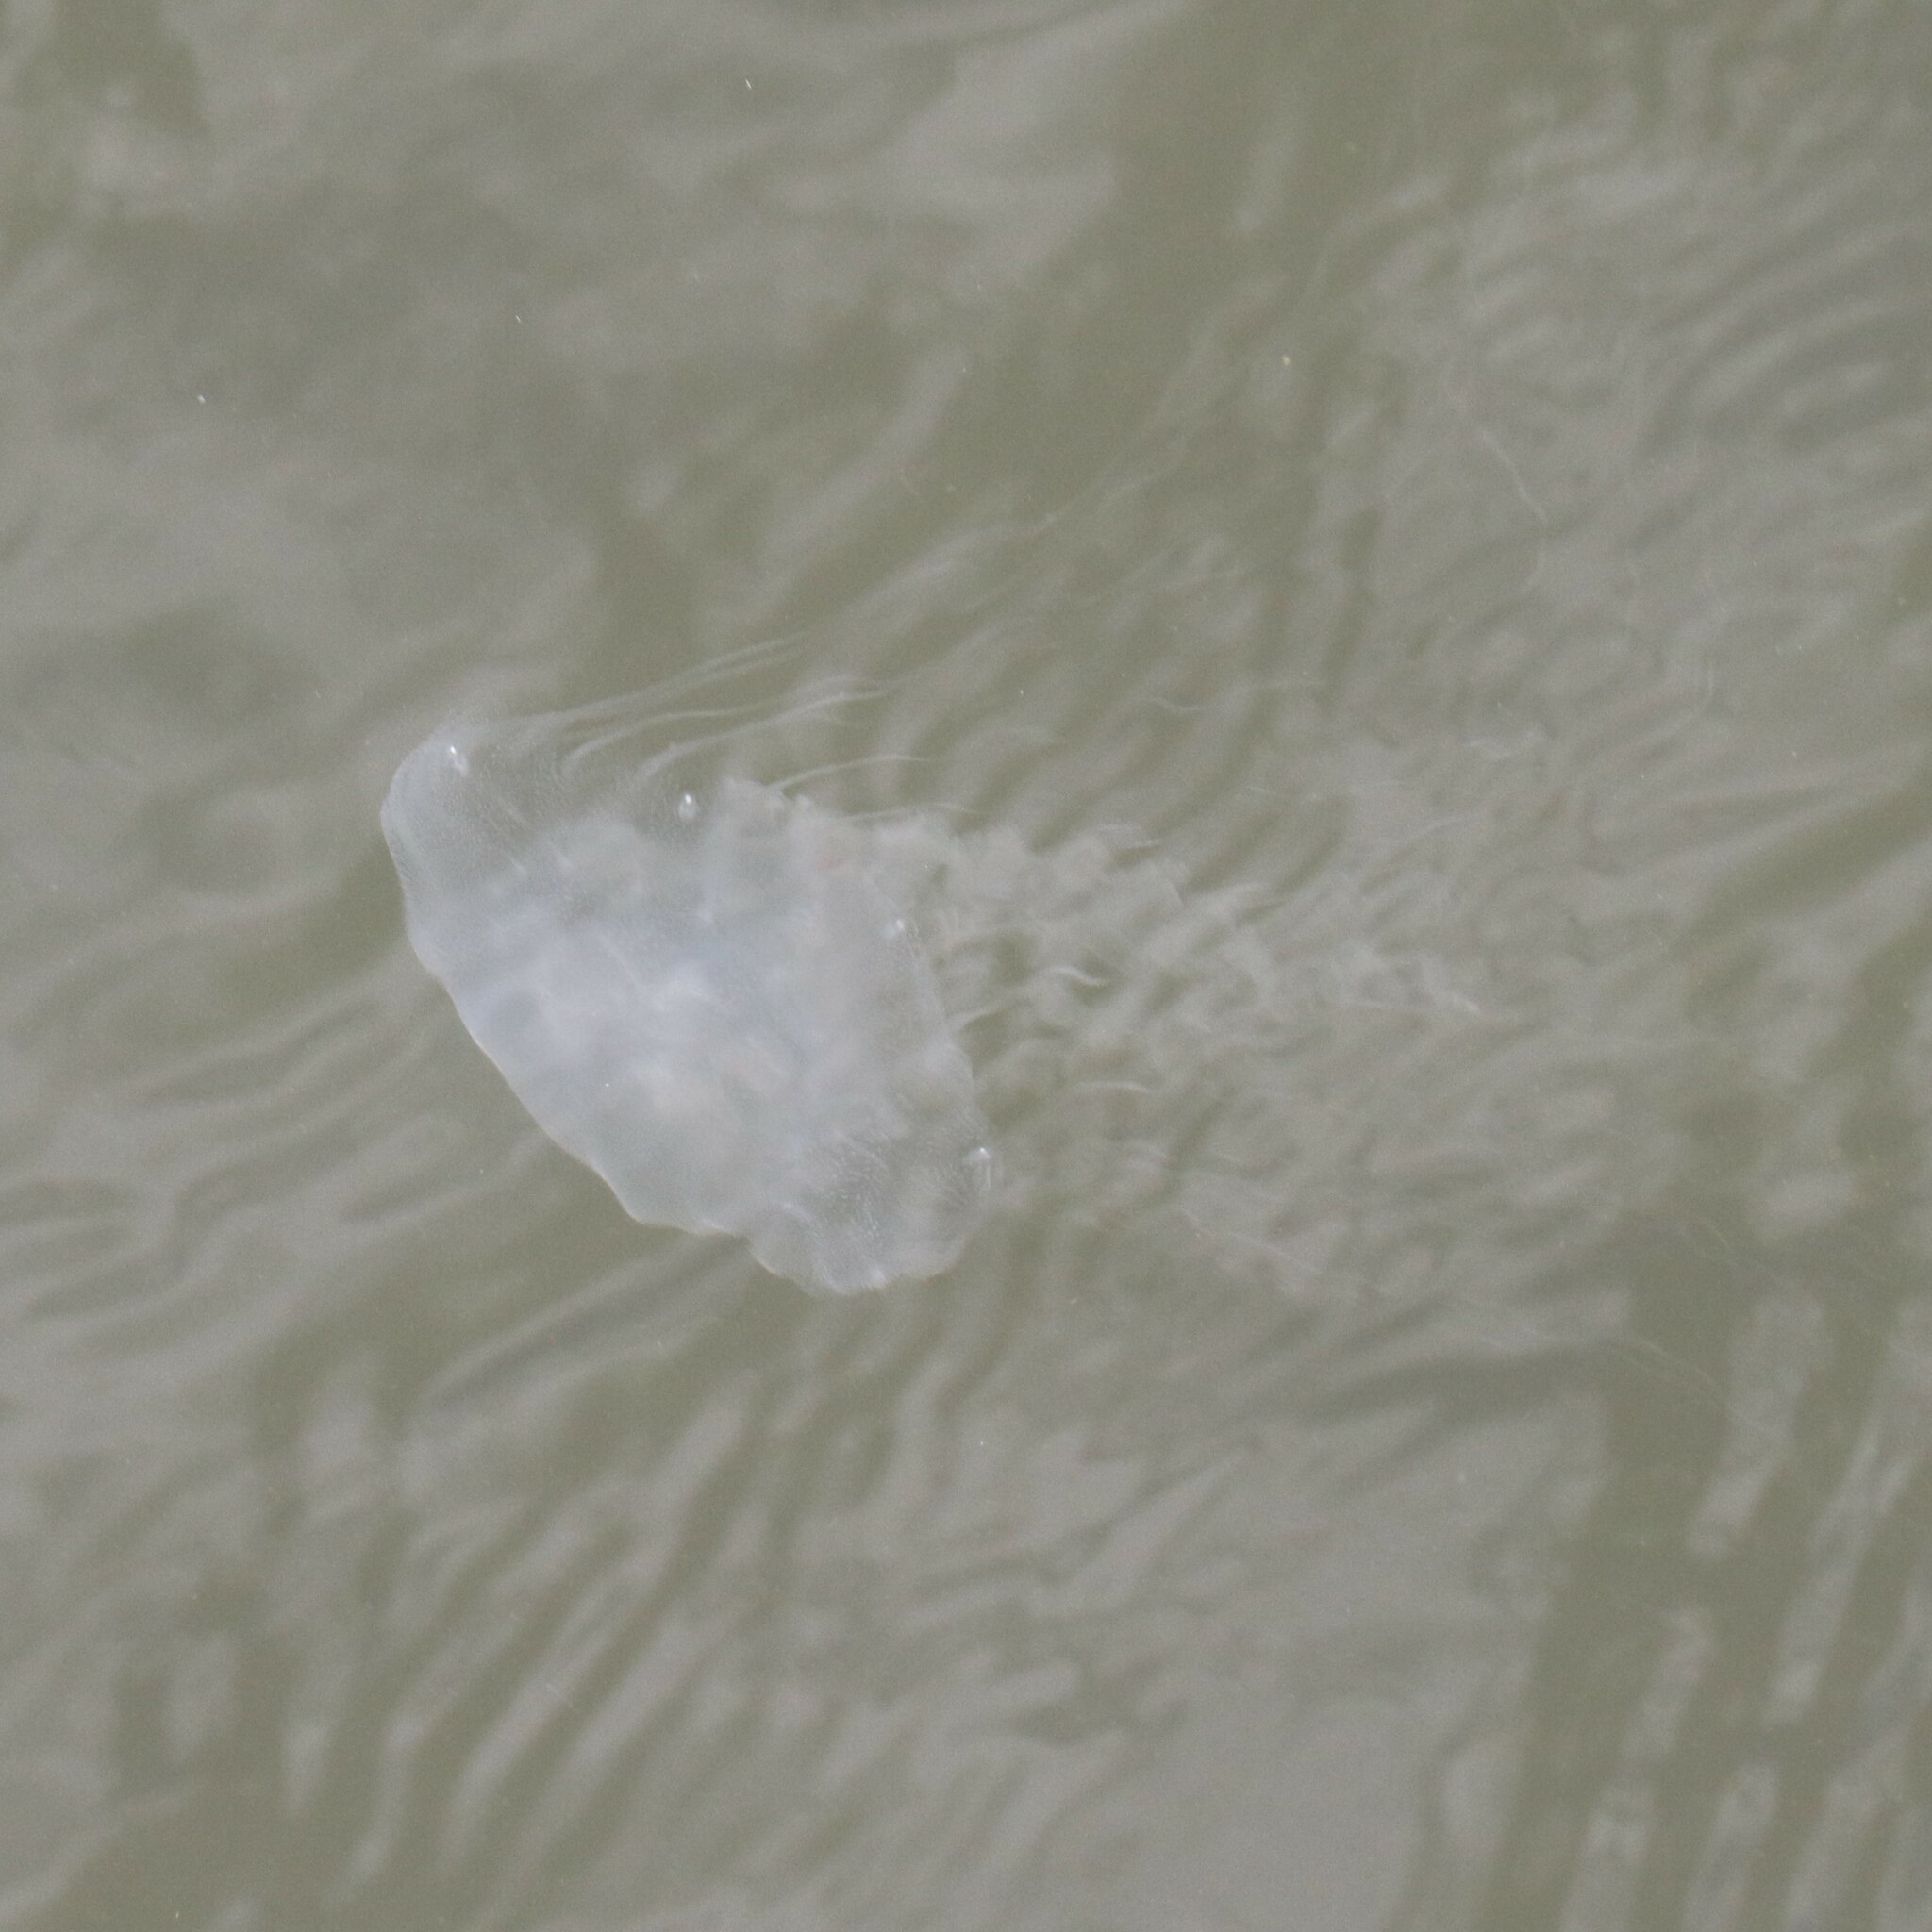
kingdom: Animalia
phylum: Cnidaria
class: Scyphozoa
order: Semaeostomeae
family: Pelagiidae
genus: Chrysaora
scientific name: Chrysaora chesapeakei
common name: Bay nettle
